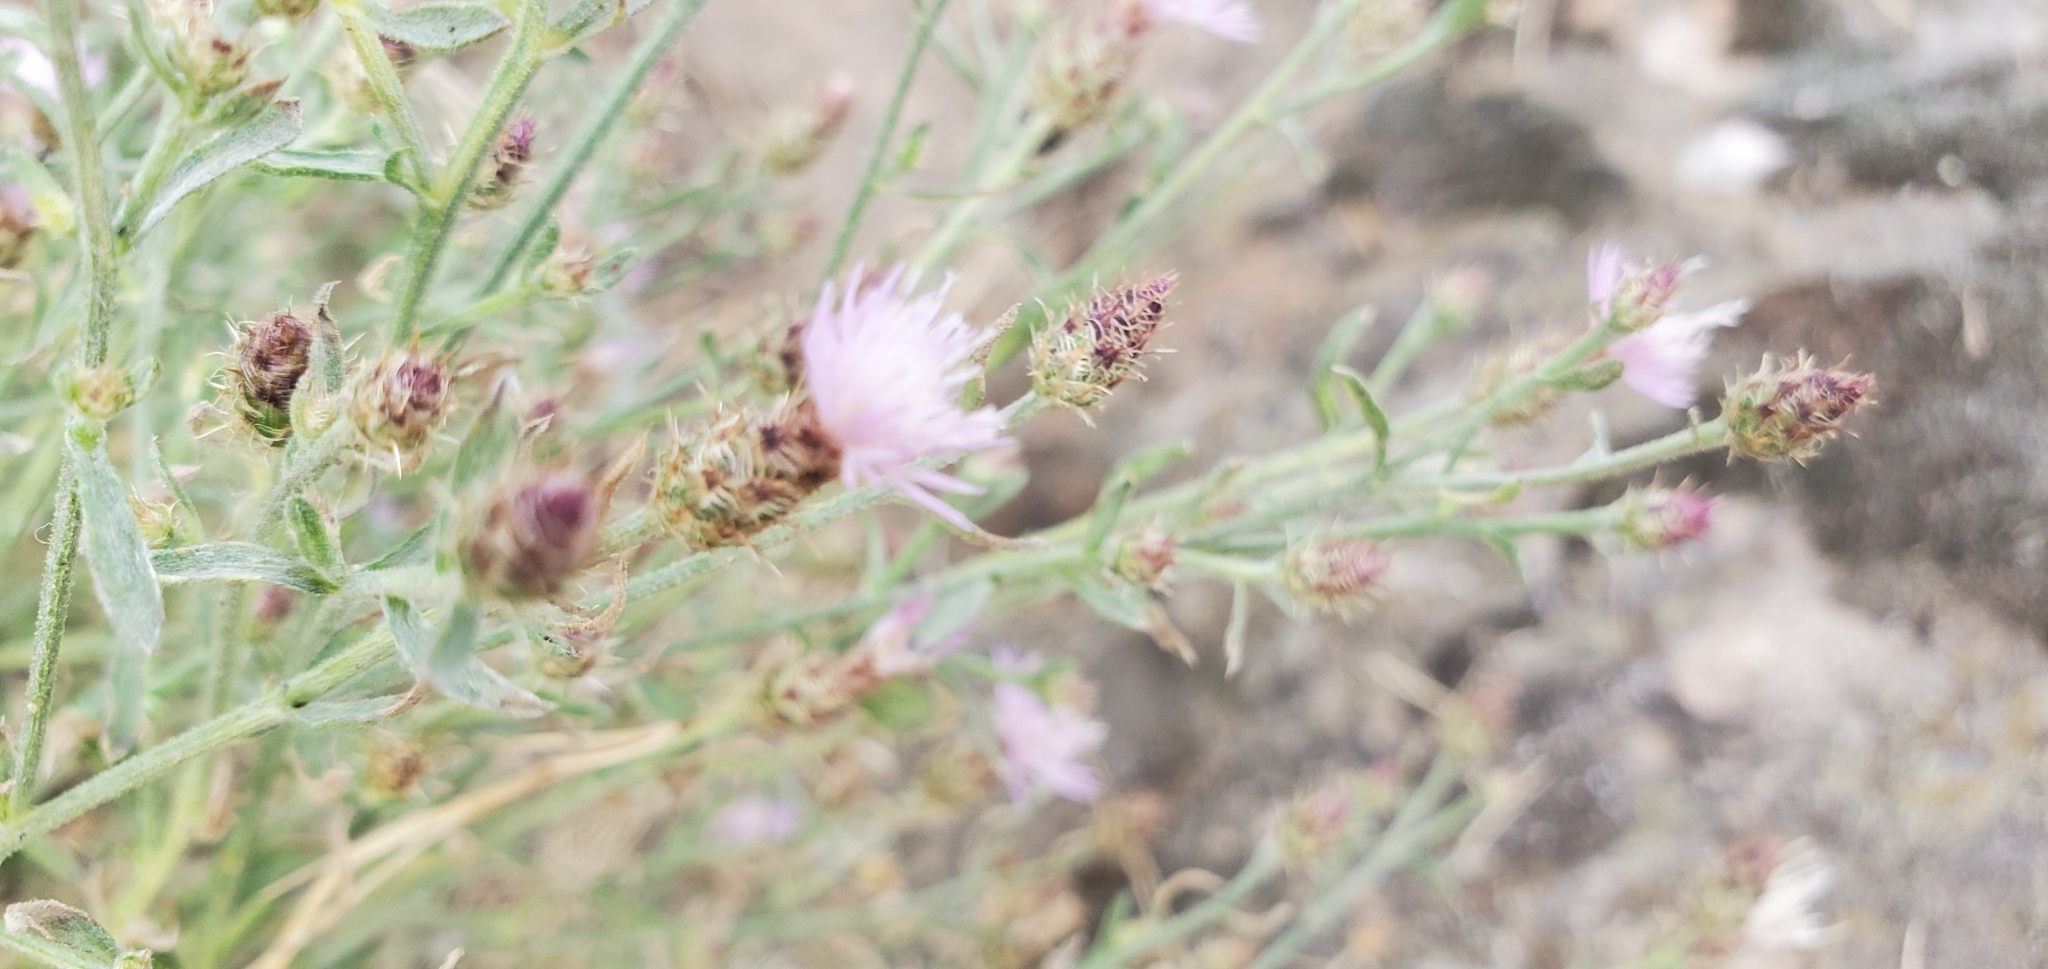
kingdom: Plantae
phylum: Tracheophyta
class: Magnoliopsida
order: Asterales
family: Asteraceae
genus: Centaurea
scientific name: Centaurea diffusa
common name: Diffuse knapweed
